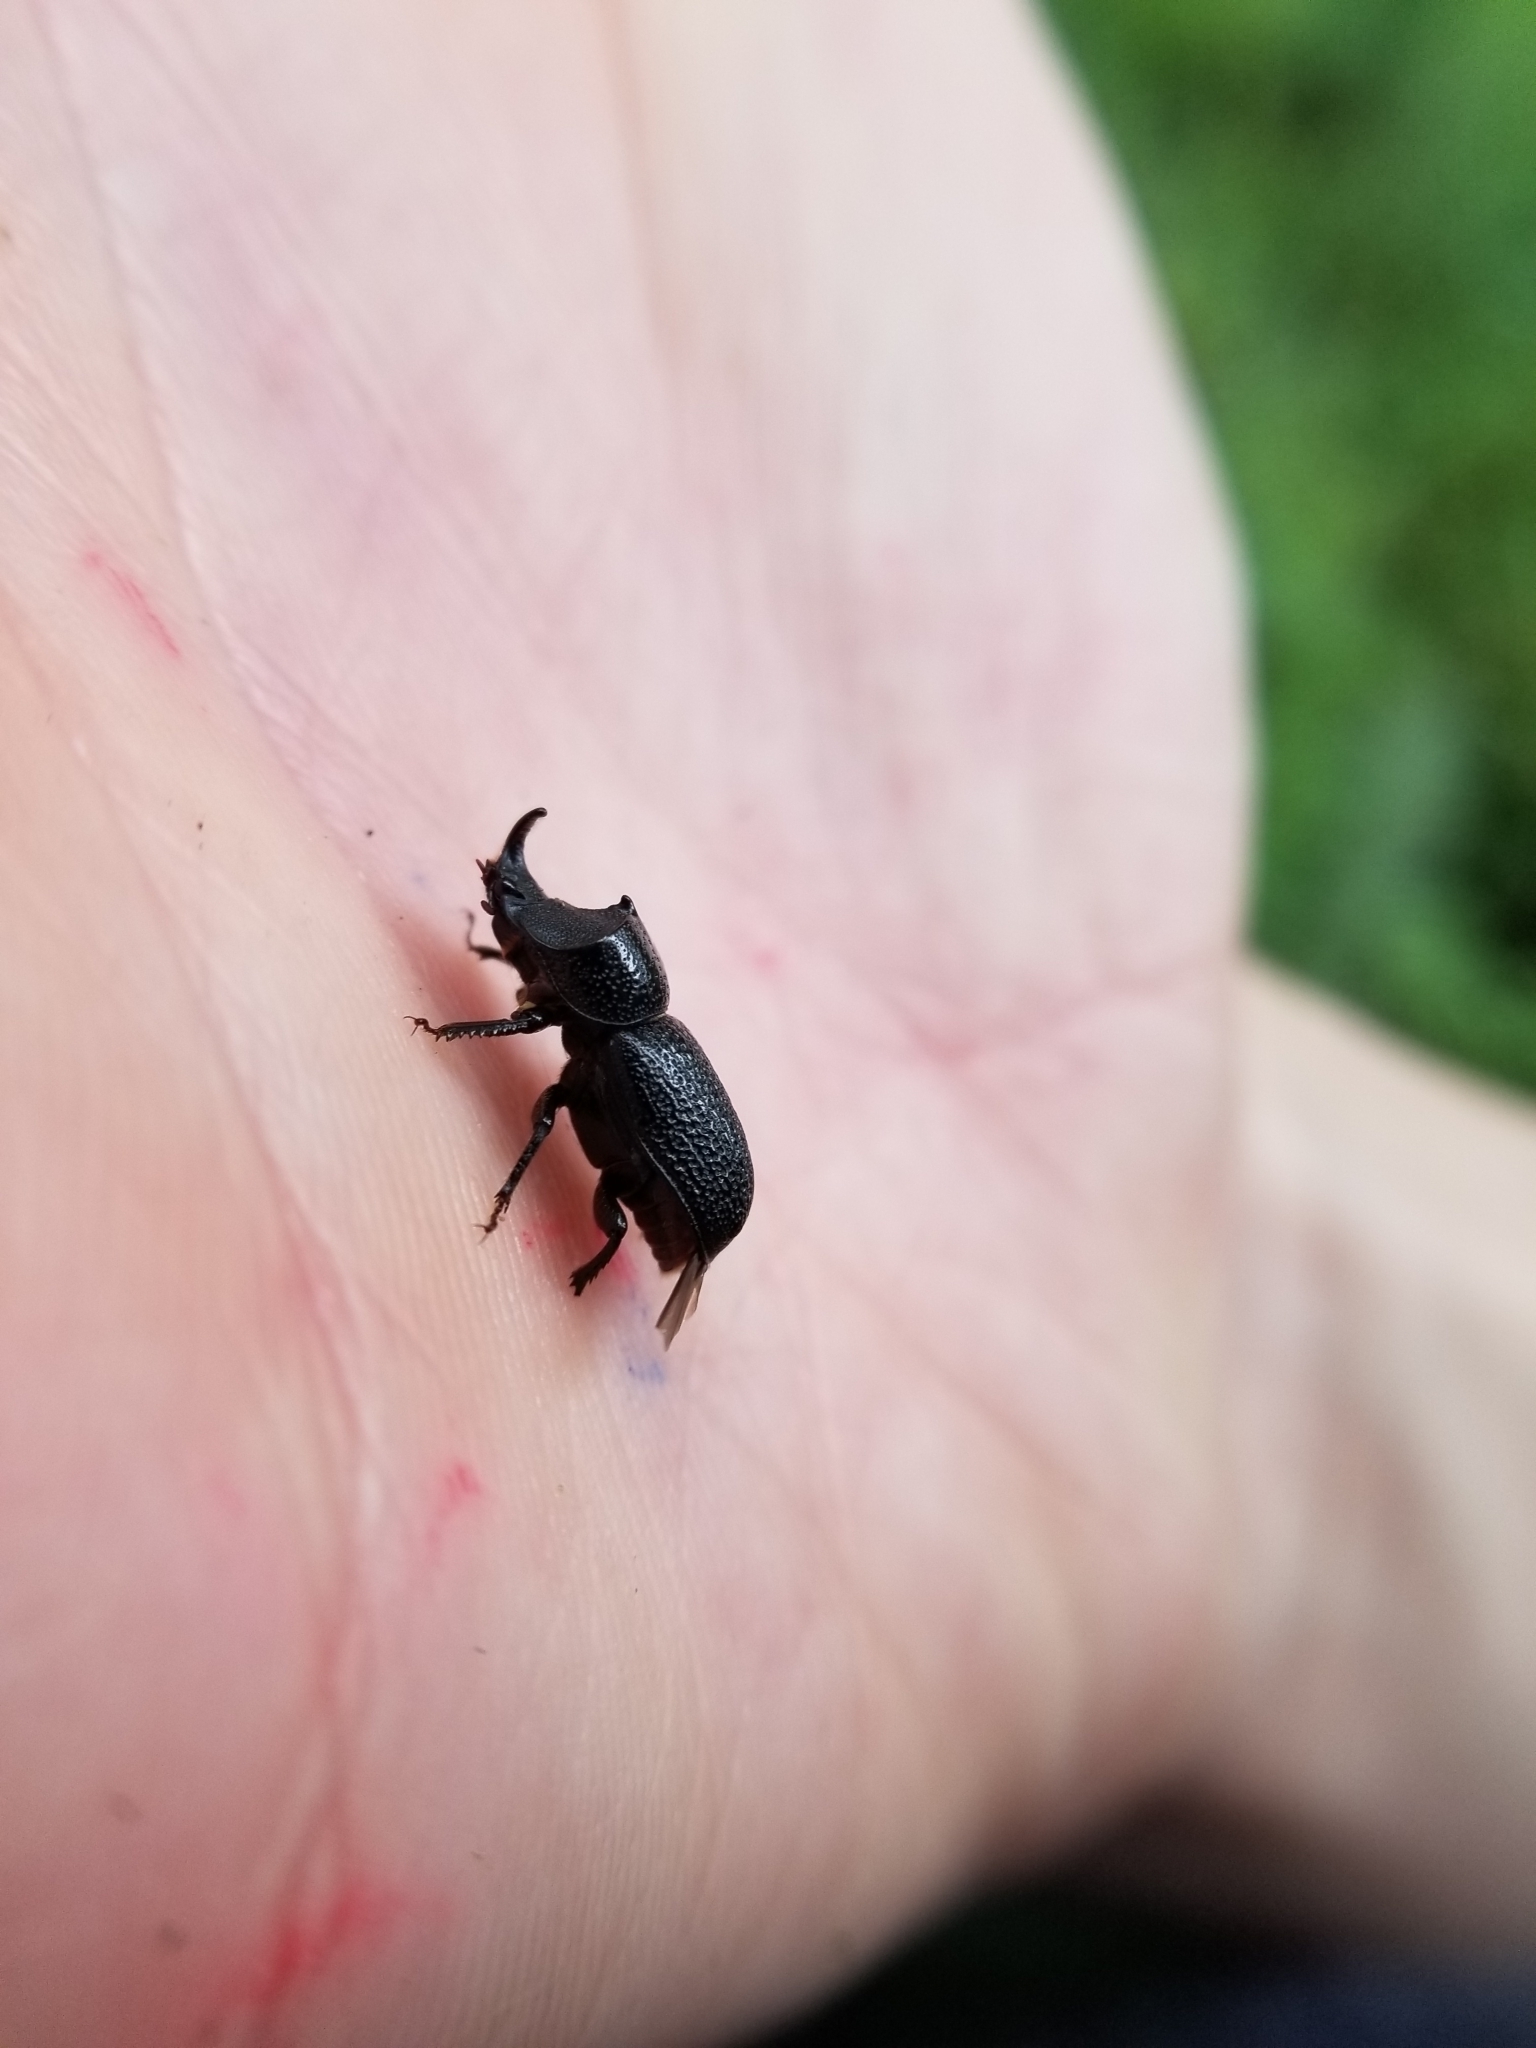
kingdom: Animalia
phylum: Arthropoda
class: Insecta
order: Coleoptera
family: Lucanidae
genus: Sinodendron
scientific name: Sinodendron rugosum
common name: Rugose stag beelte
